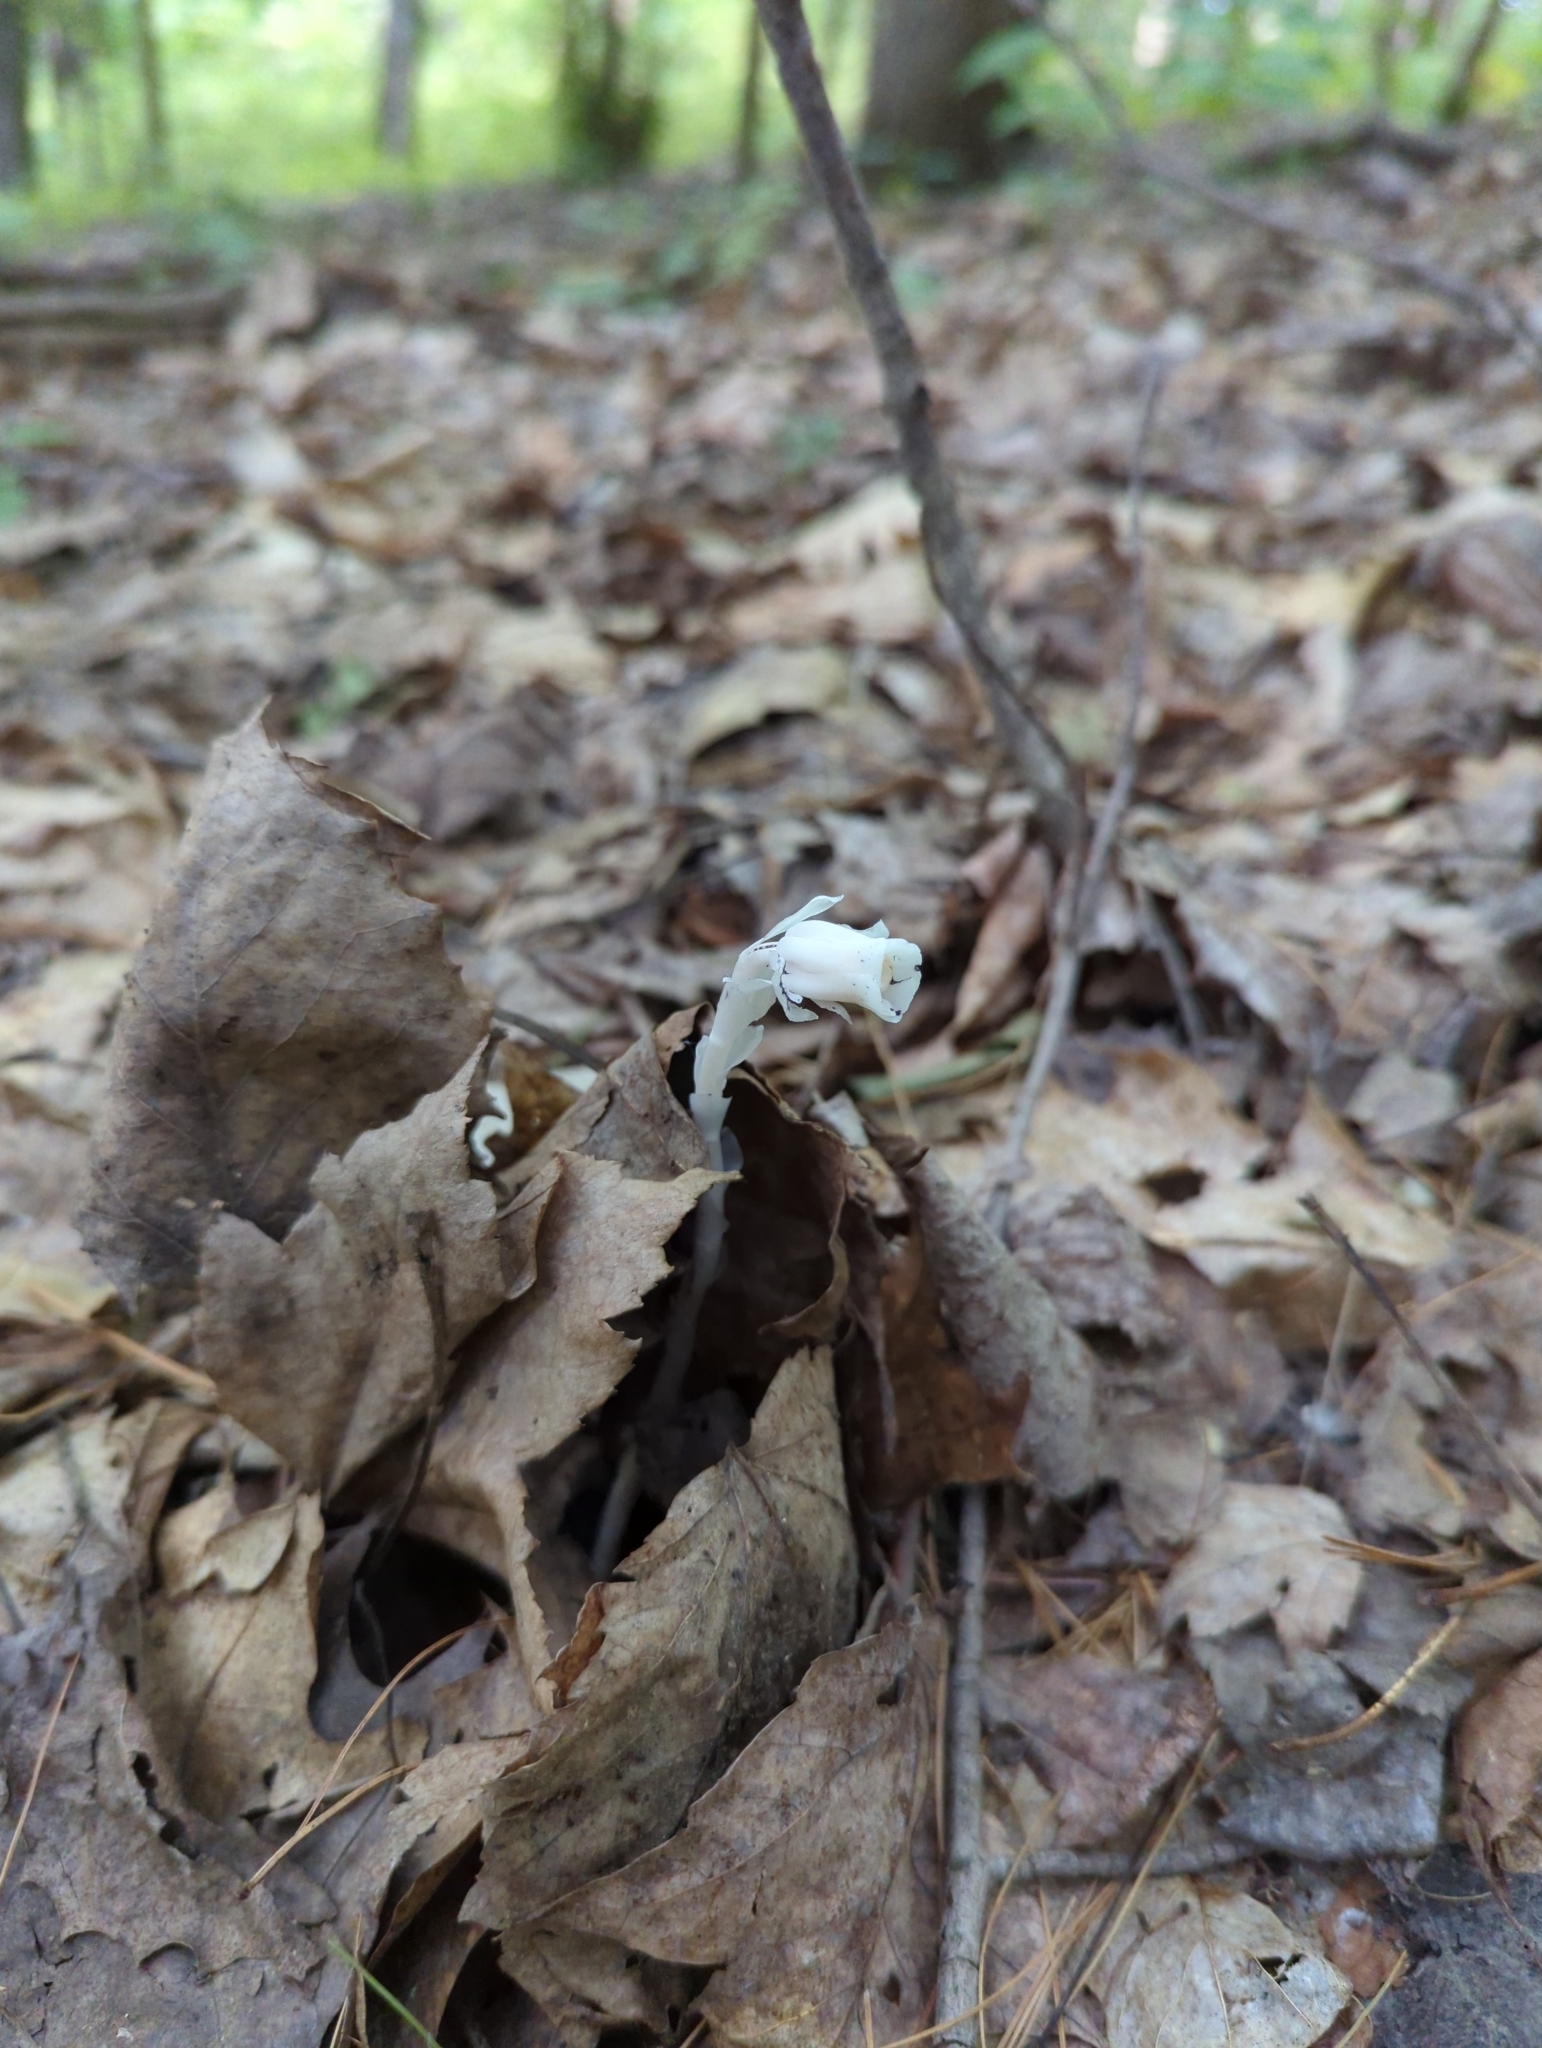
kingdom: Plantae
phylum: Tracheophyta
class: Magnoliopsida
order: Ericales
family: Ericaceae
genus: Monotropa
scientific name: Monotropa uniflora
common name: Convulsion root
